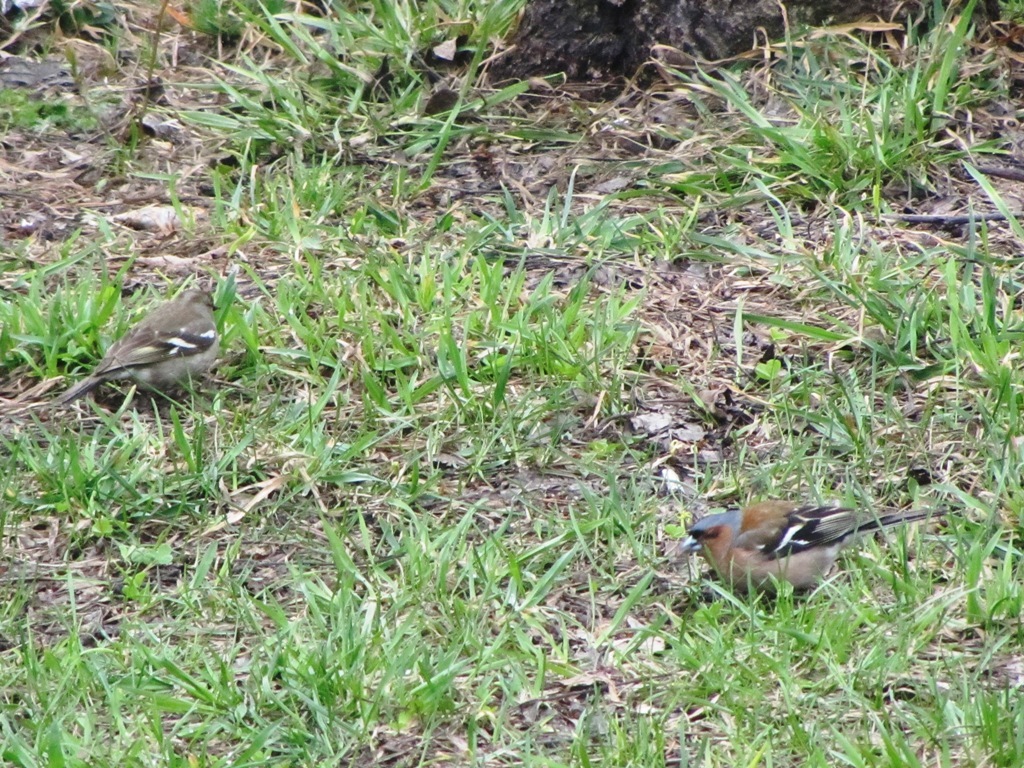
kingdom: Animalia
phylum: Chordata
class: Aves
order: Passeriformes
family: Fringillidae
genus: Fringilla
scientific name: Fringilla coelebs
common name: Common chaffinch
